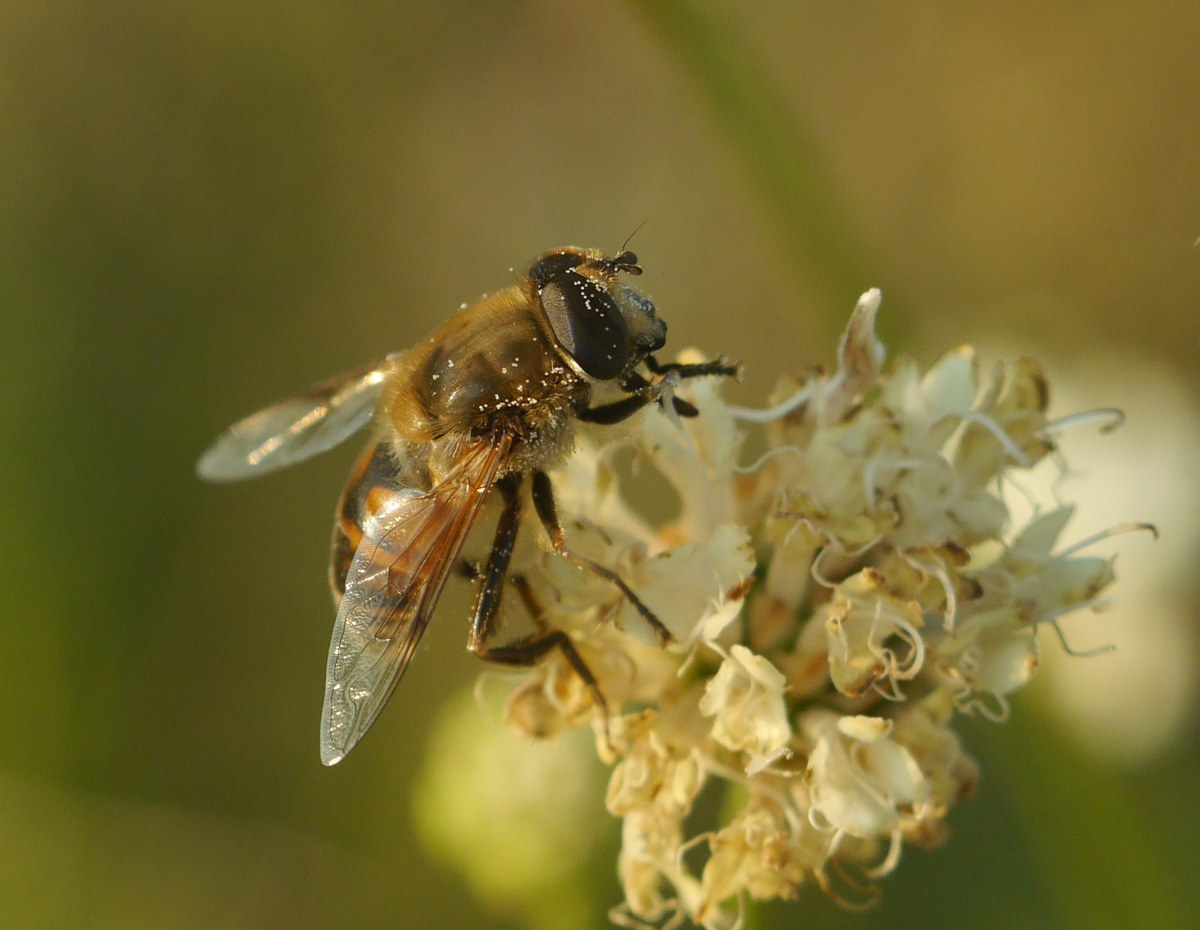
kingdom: Animalia
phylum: Arthropoda
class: Insecta
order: Diptera
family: Syrphidae
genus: Eristalis
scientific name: Eristalis tenax
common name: Drone fly
